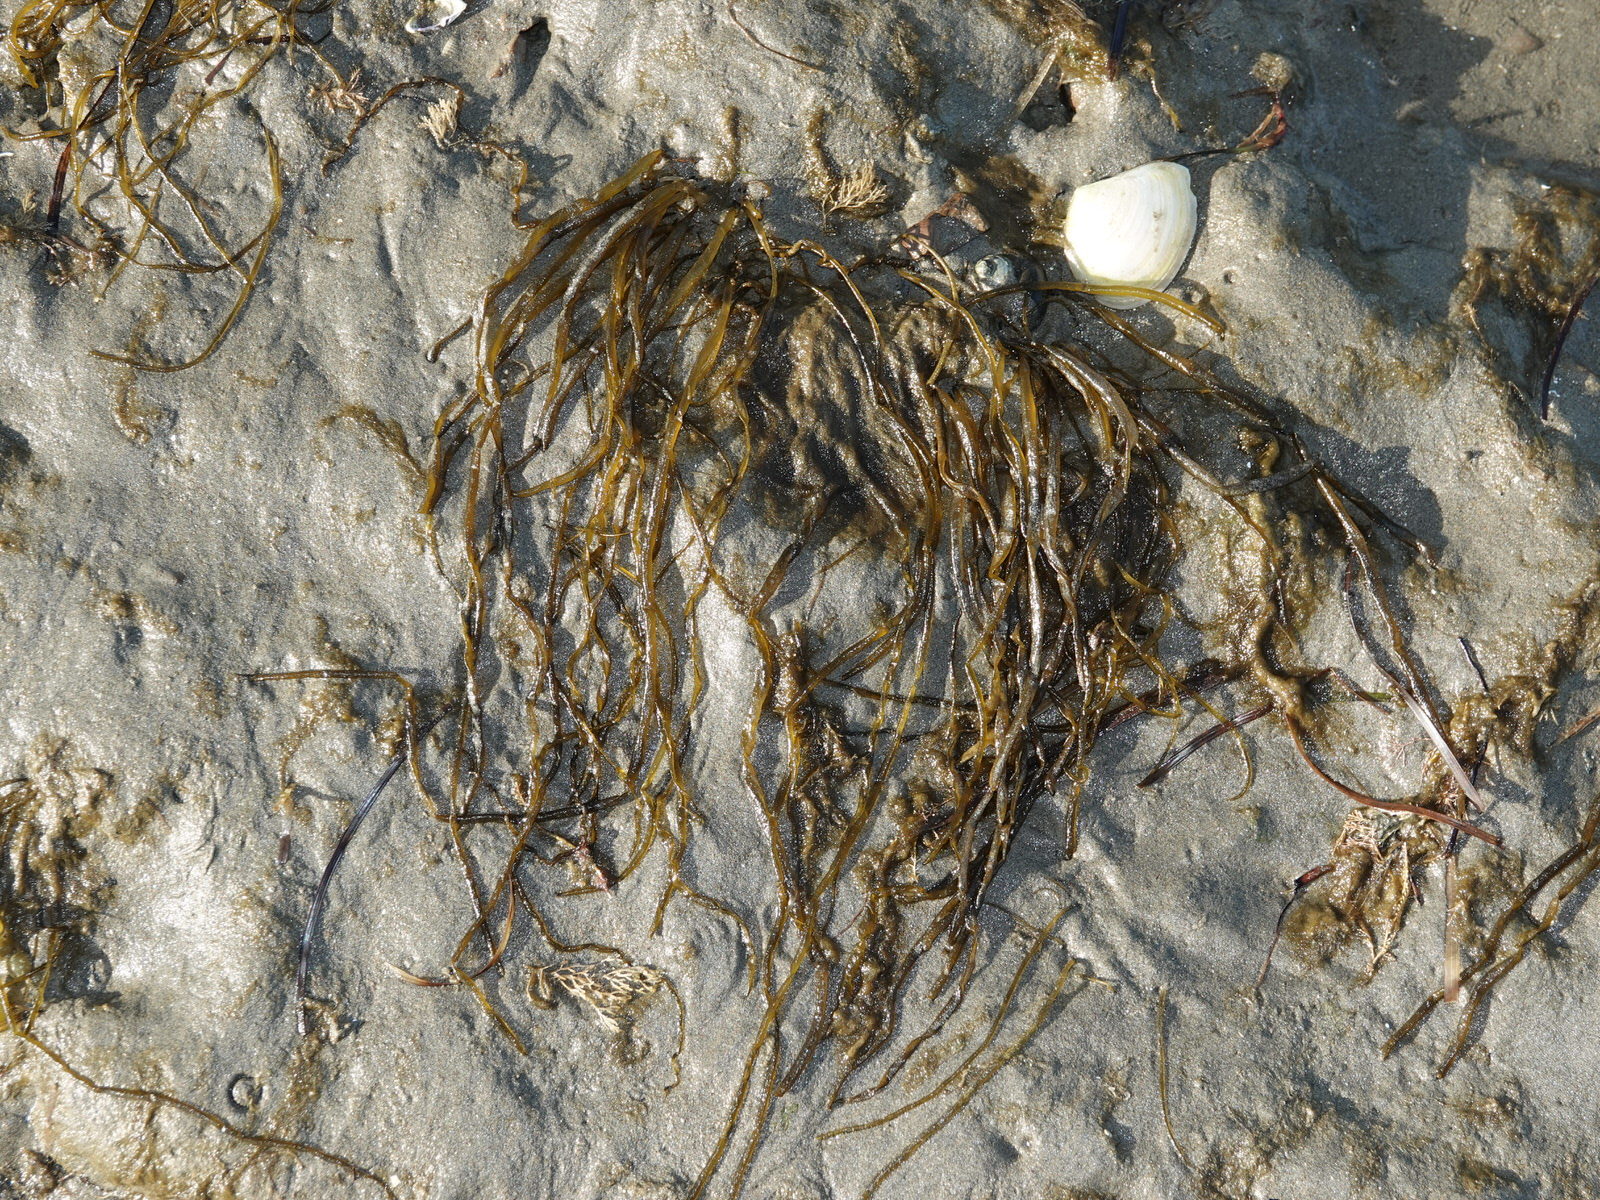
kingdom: Chromista
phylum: Ochrophyta
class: Phaeophyceae
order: Scytosiphonales
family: Scytosiphonaceae
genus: Scytosiphon
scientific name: Scytosiphon lomentaria
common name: Beanweed
